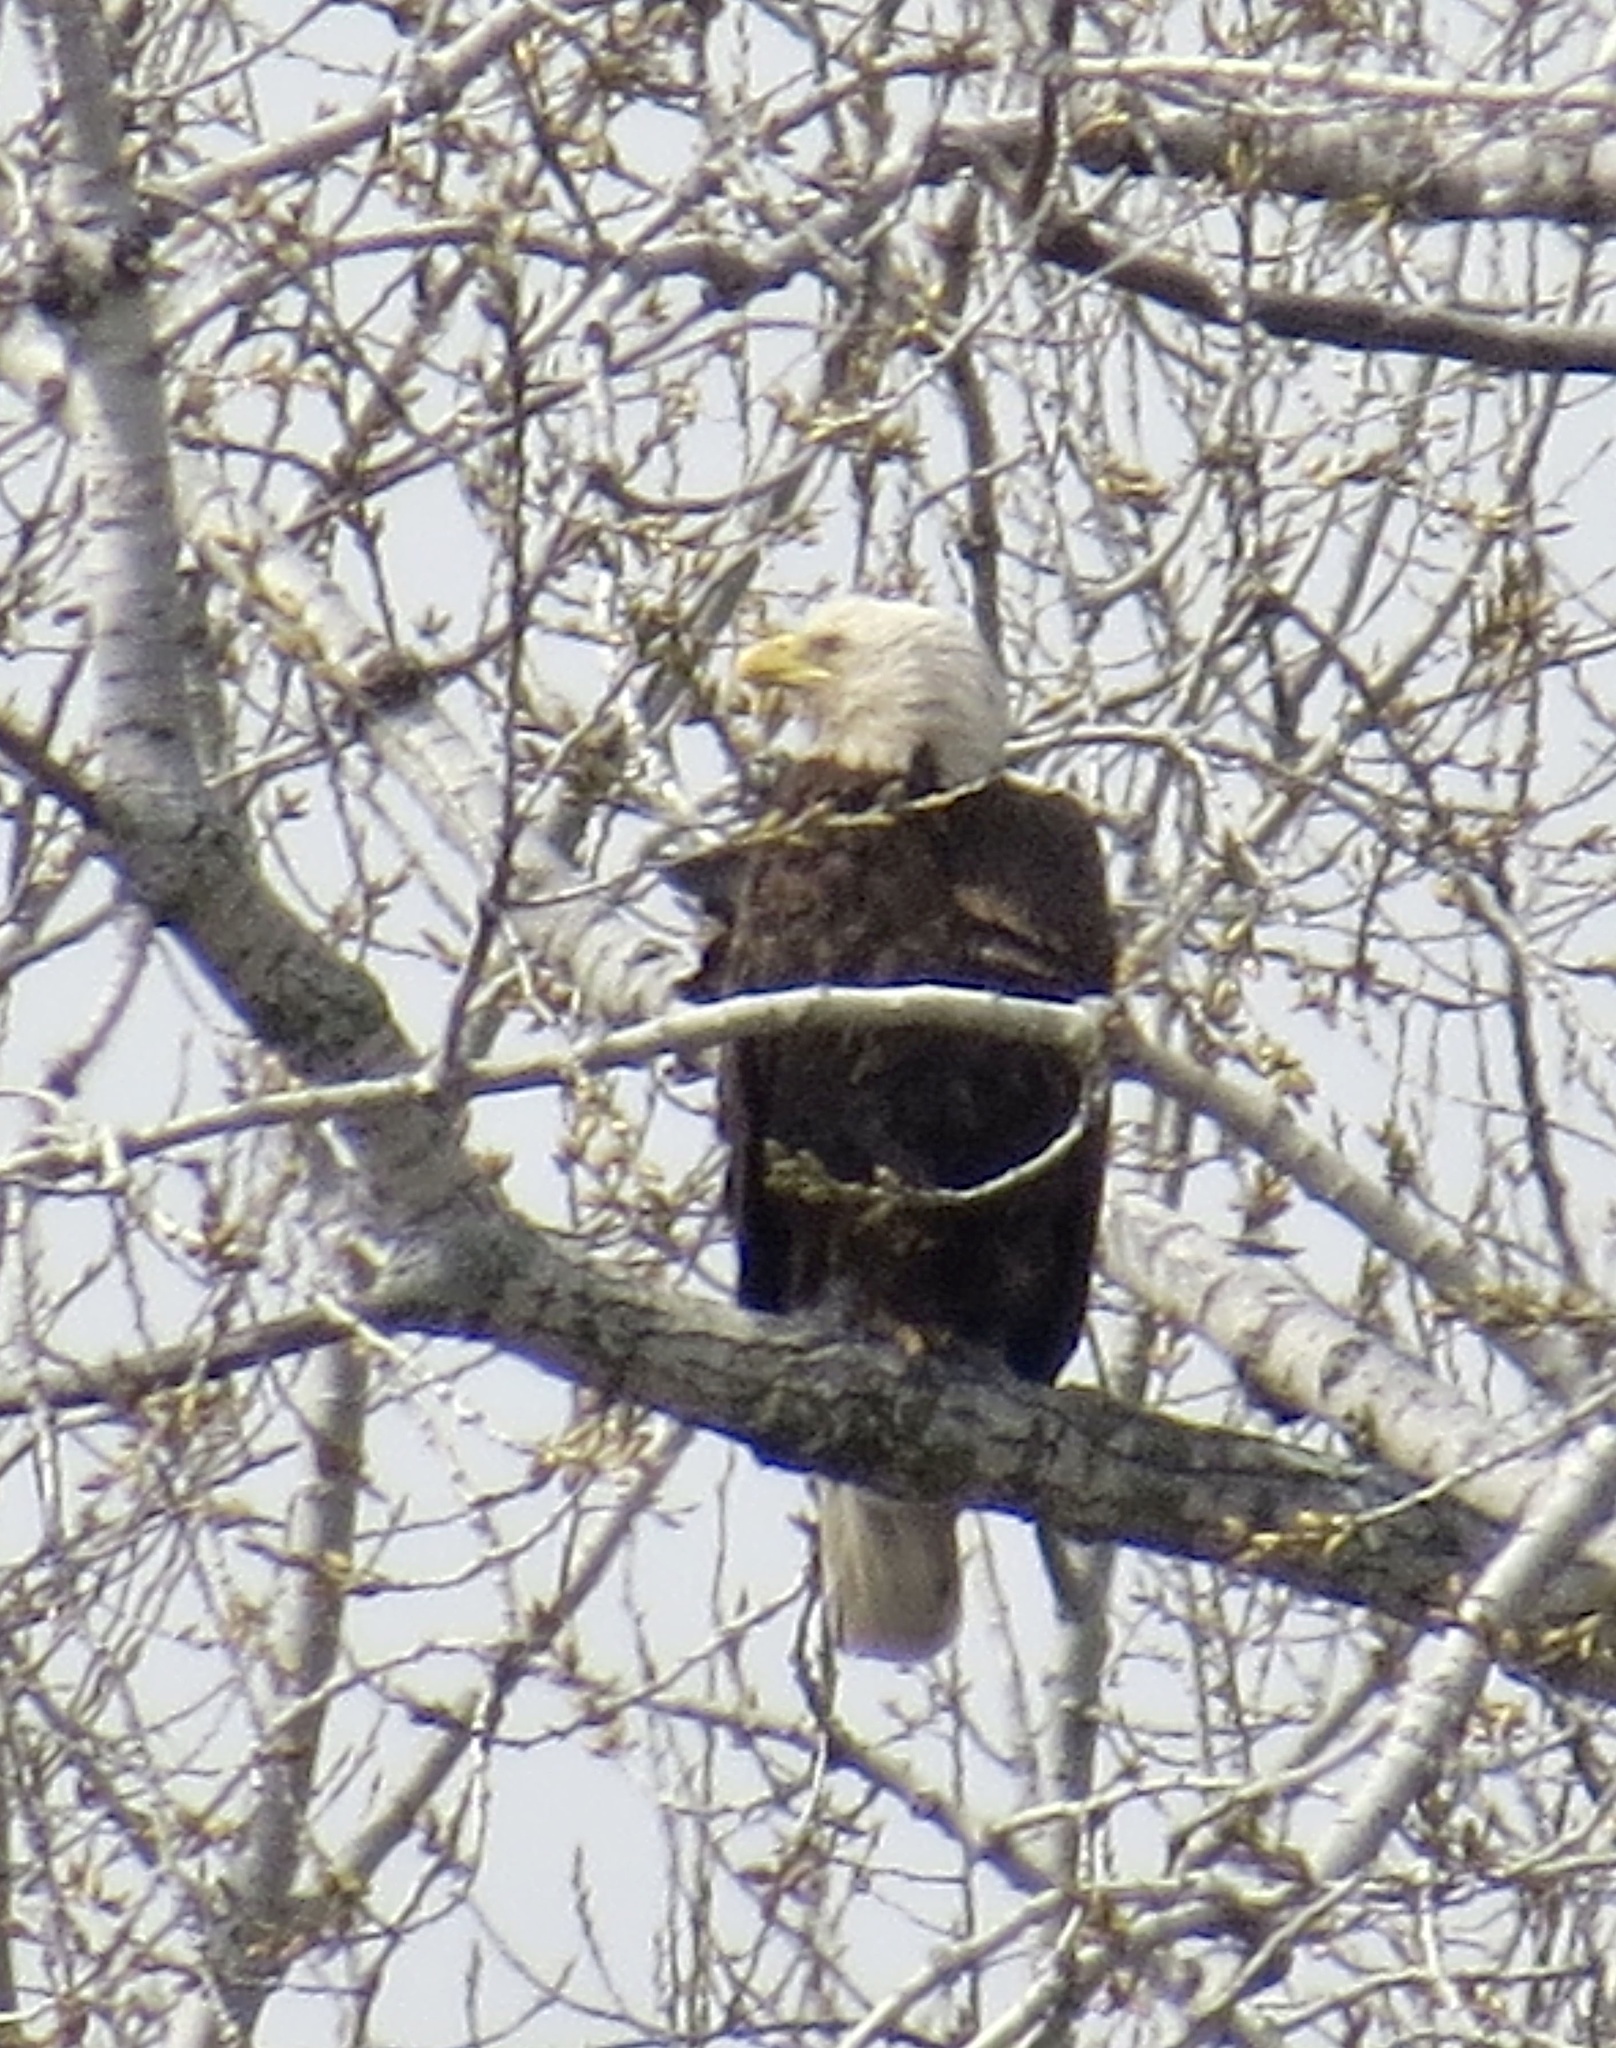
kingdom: Animalia
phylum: Chordata
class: Aves
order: Accipitriformes
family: Accipitridae
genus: Haliaeetus
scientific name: Haliaeetus leucocephalus
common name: Bald eagle
